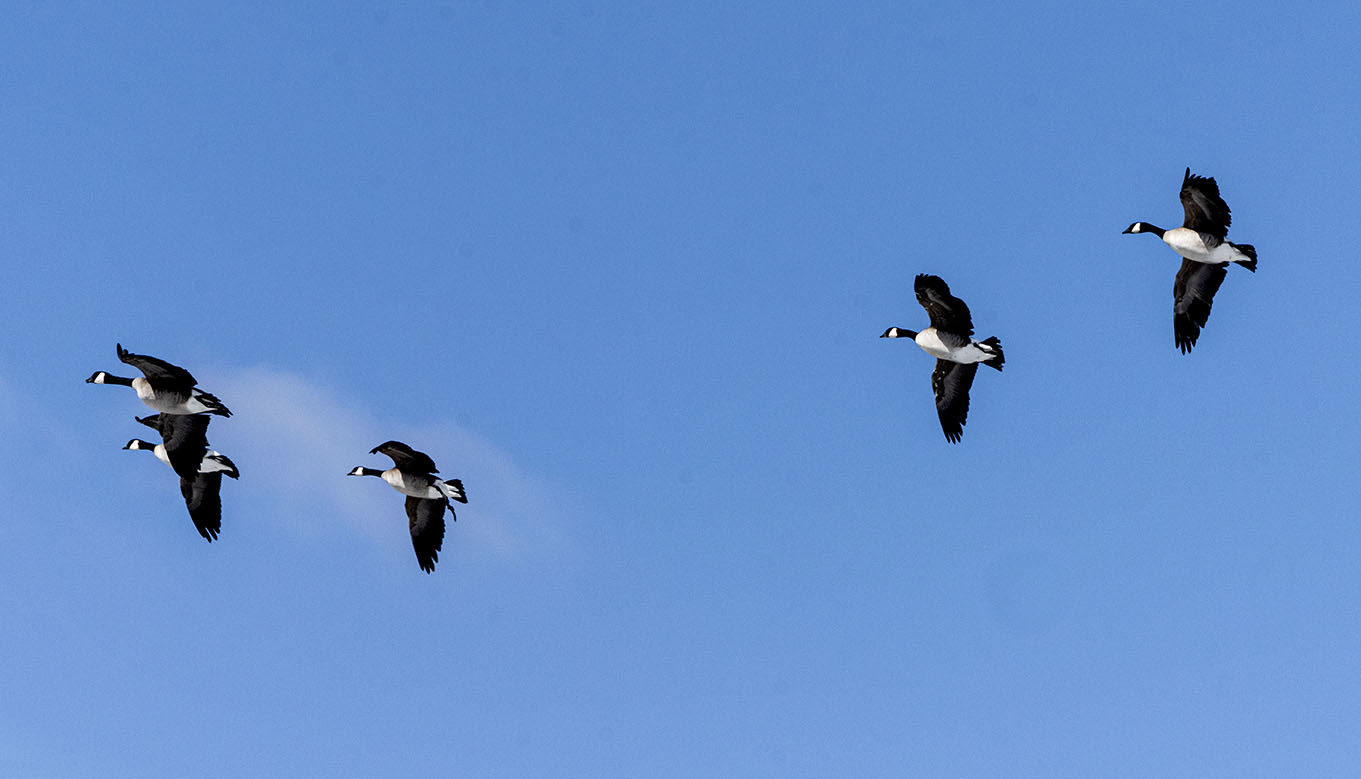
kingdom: Animalia
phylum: Chordata
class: Aves
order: Anseriformes
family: Anatidae
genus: Branta
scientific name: Branta canadensis
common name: Canada goose
